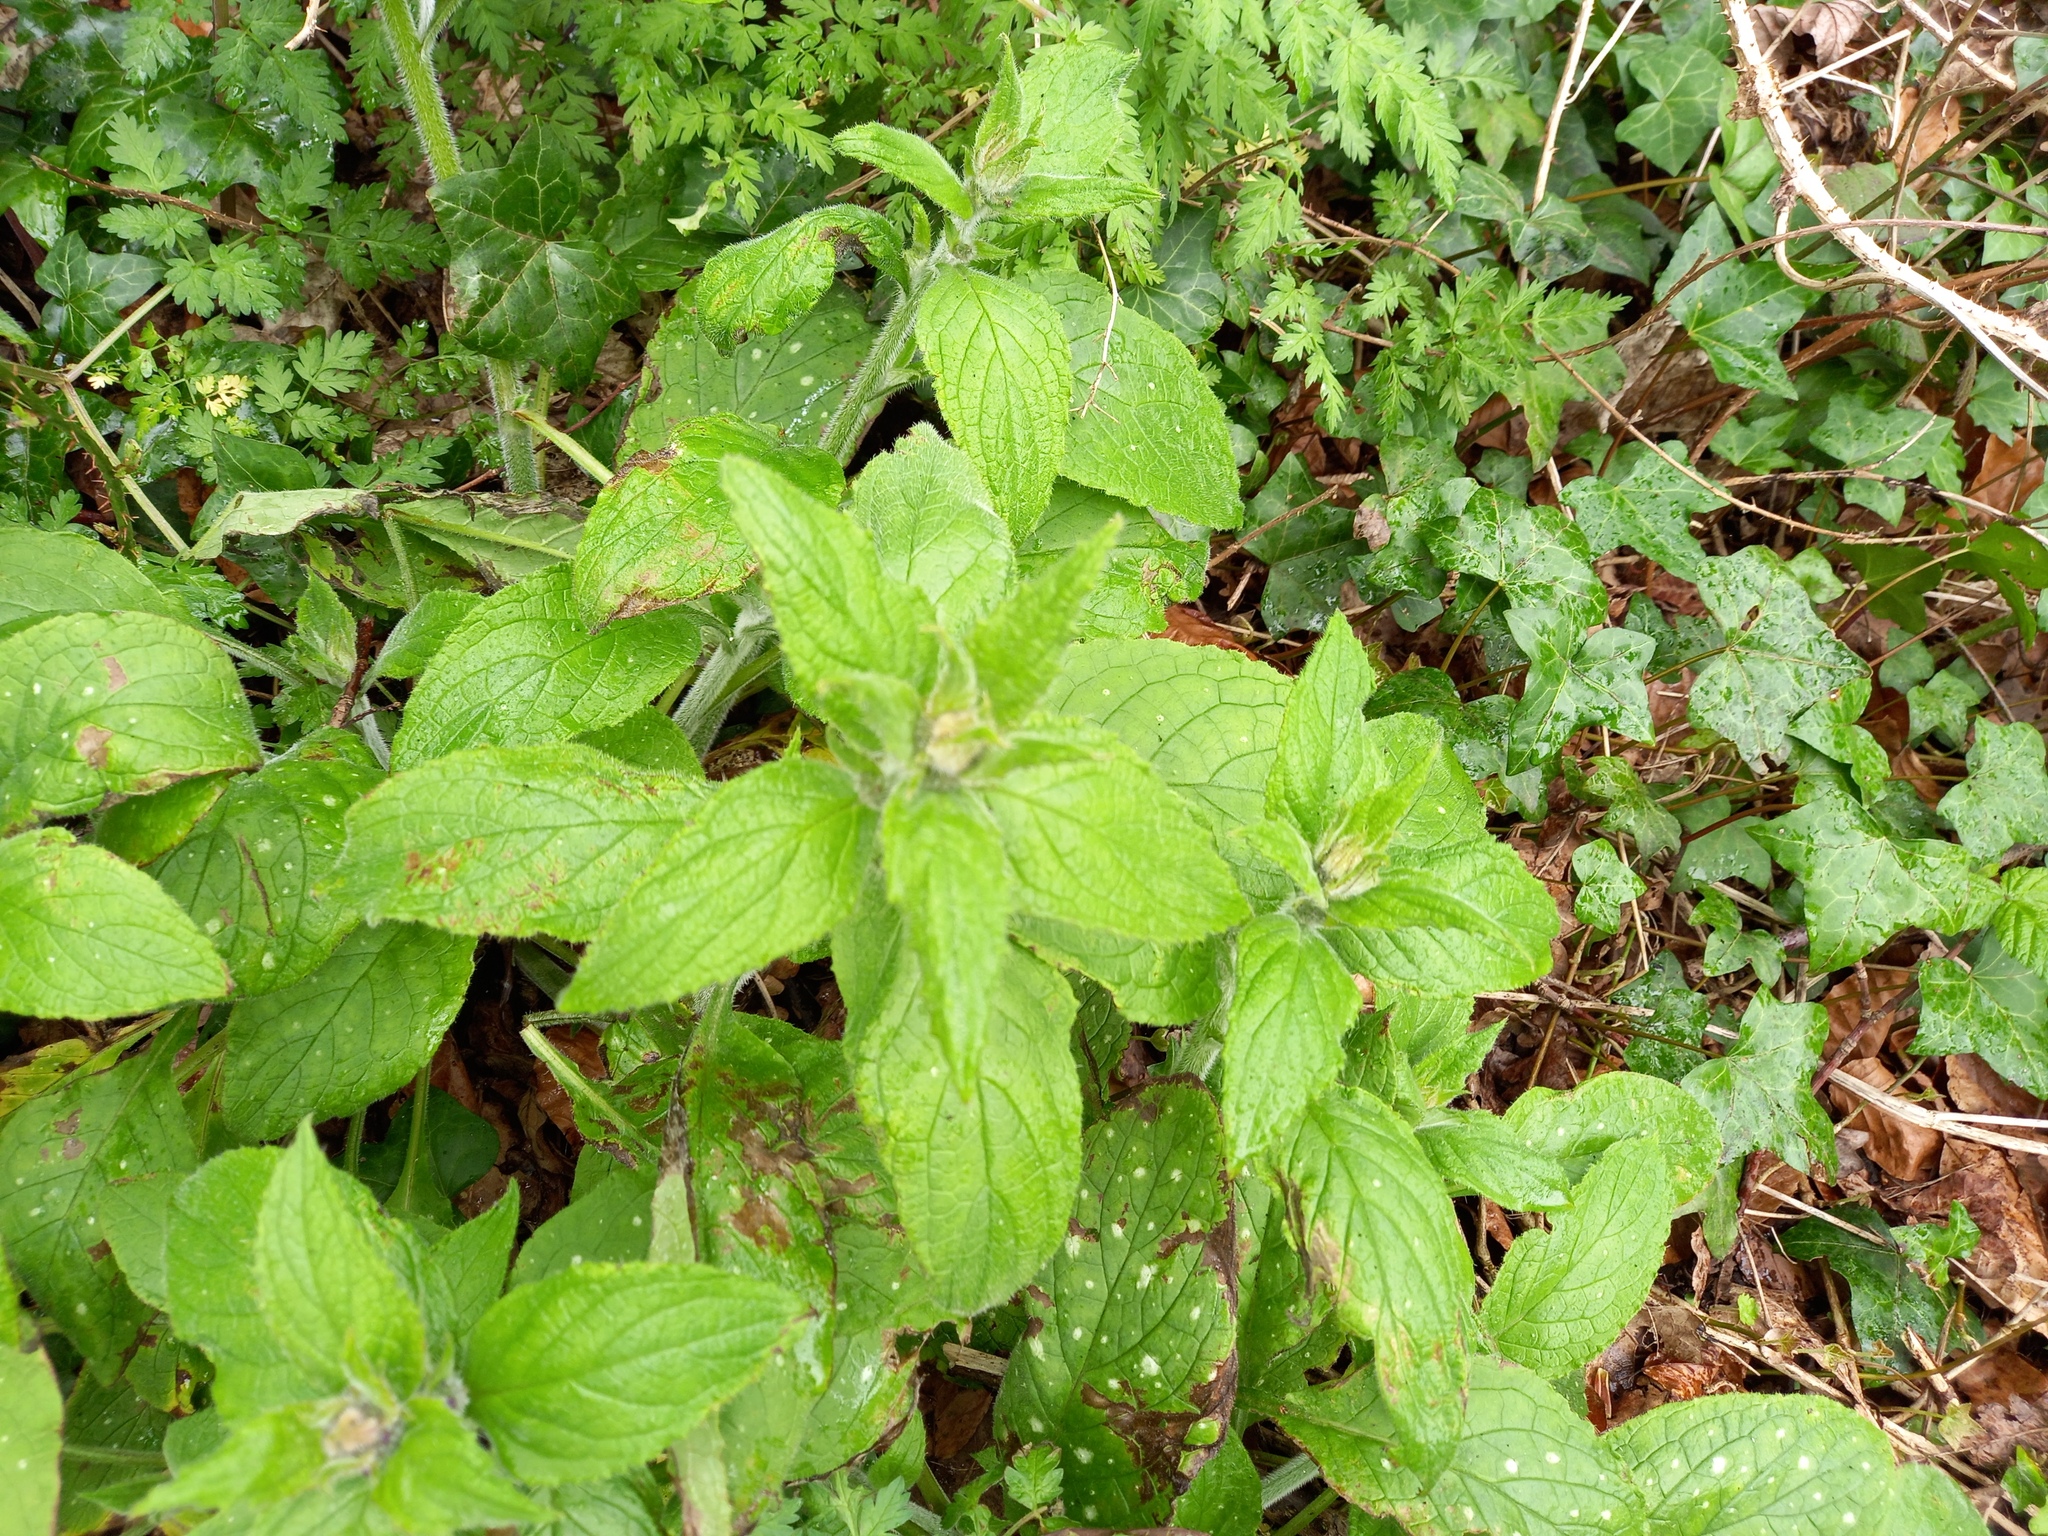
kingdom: Plantae
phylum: Tracheophyta
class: Magnoliopsida
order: Boraginales
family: Boraginaceae
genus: Pentaglottis
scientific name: Pentaglottis sempervirens
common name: Green alkanet
